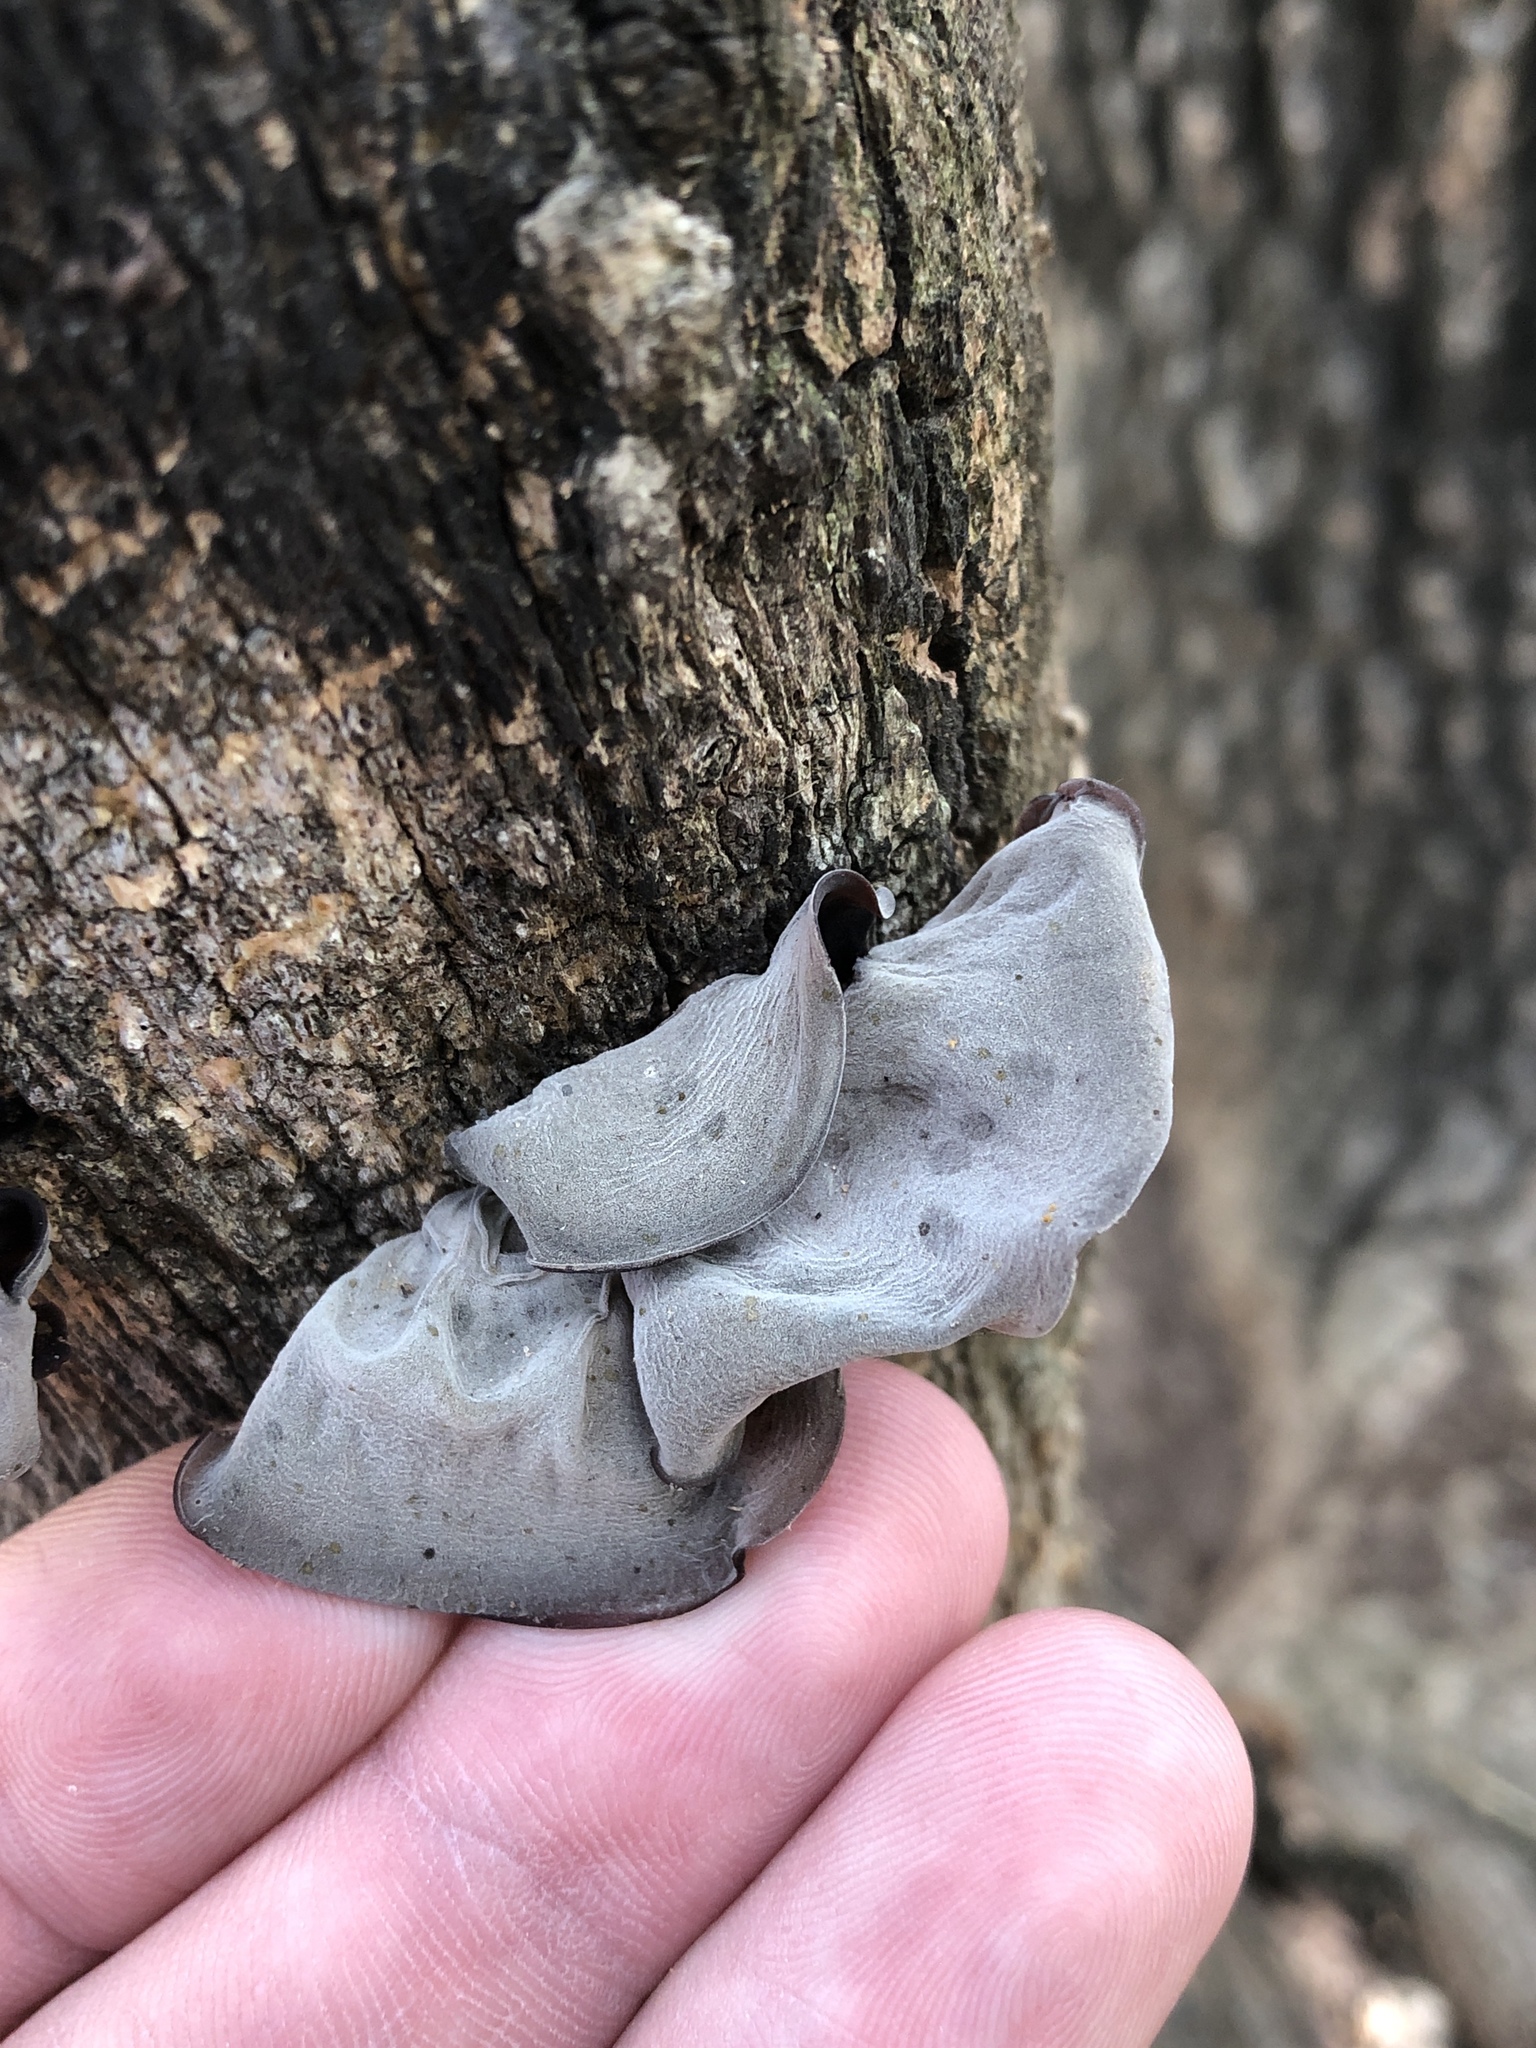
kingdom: Fungi
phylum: Basidiomycota
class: Agaricomycetes
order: Auriculariales
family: Auriculariaceae
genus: Auricularia
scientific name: Auricularia
